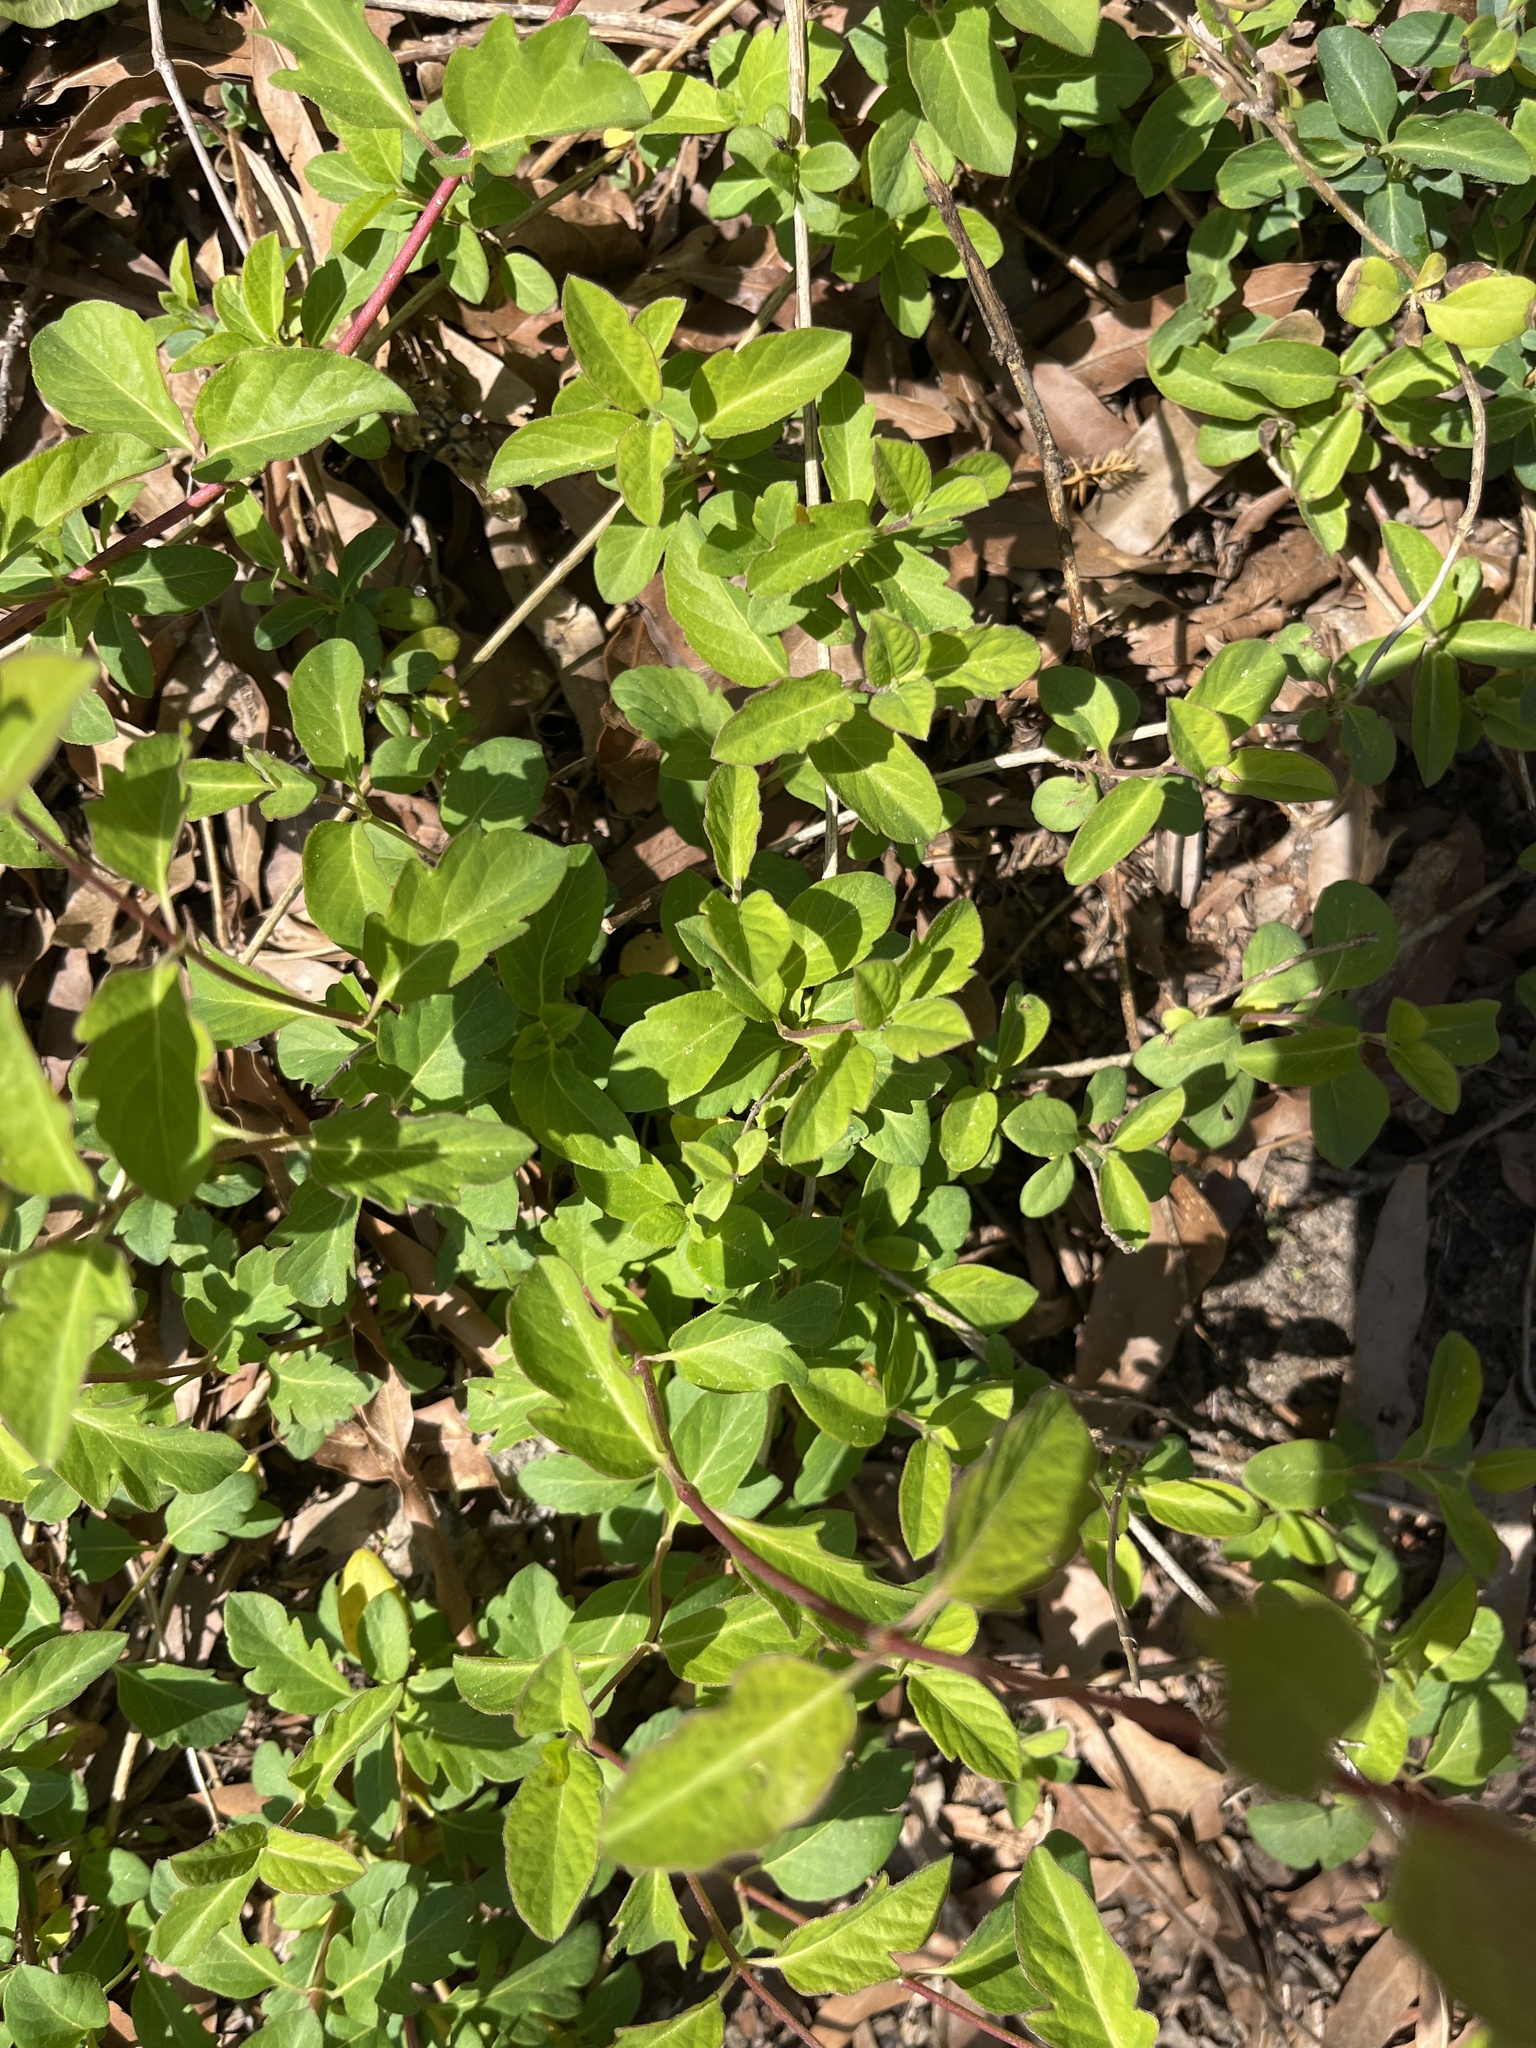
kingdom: Plantae
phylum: Tracheophyta
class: Magnoliopsida
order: Dipsacales
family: Caprifoliaceae
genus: Lonicera
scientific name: Lonicera japonica
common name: Japanese honeysuckle
